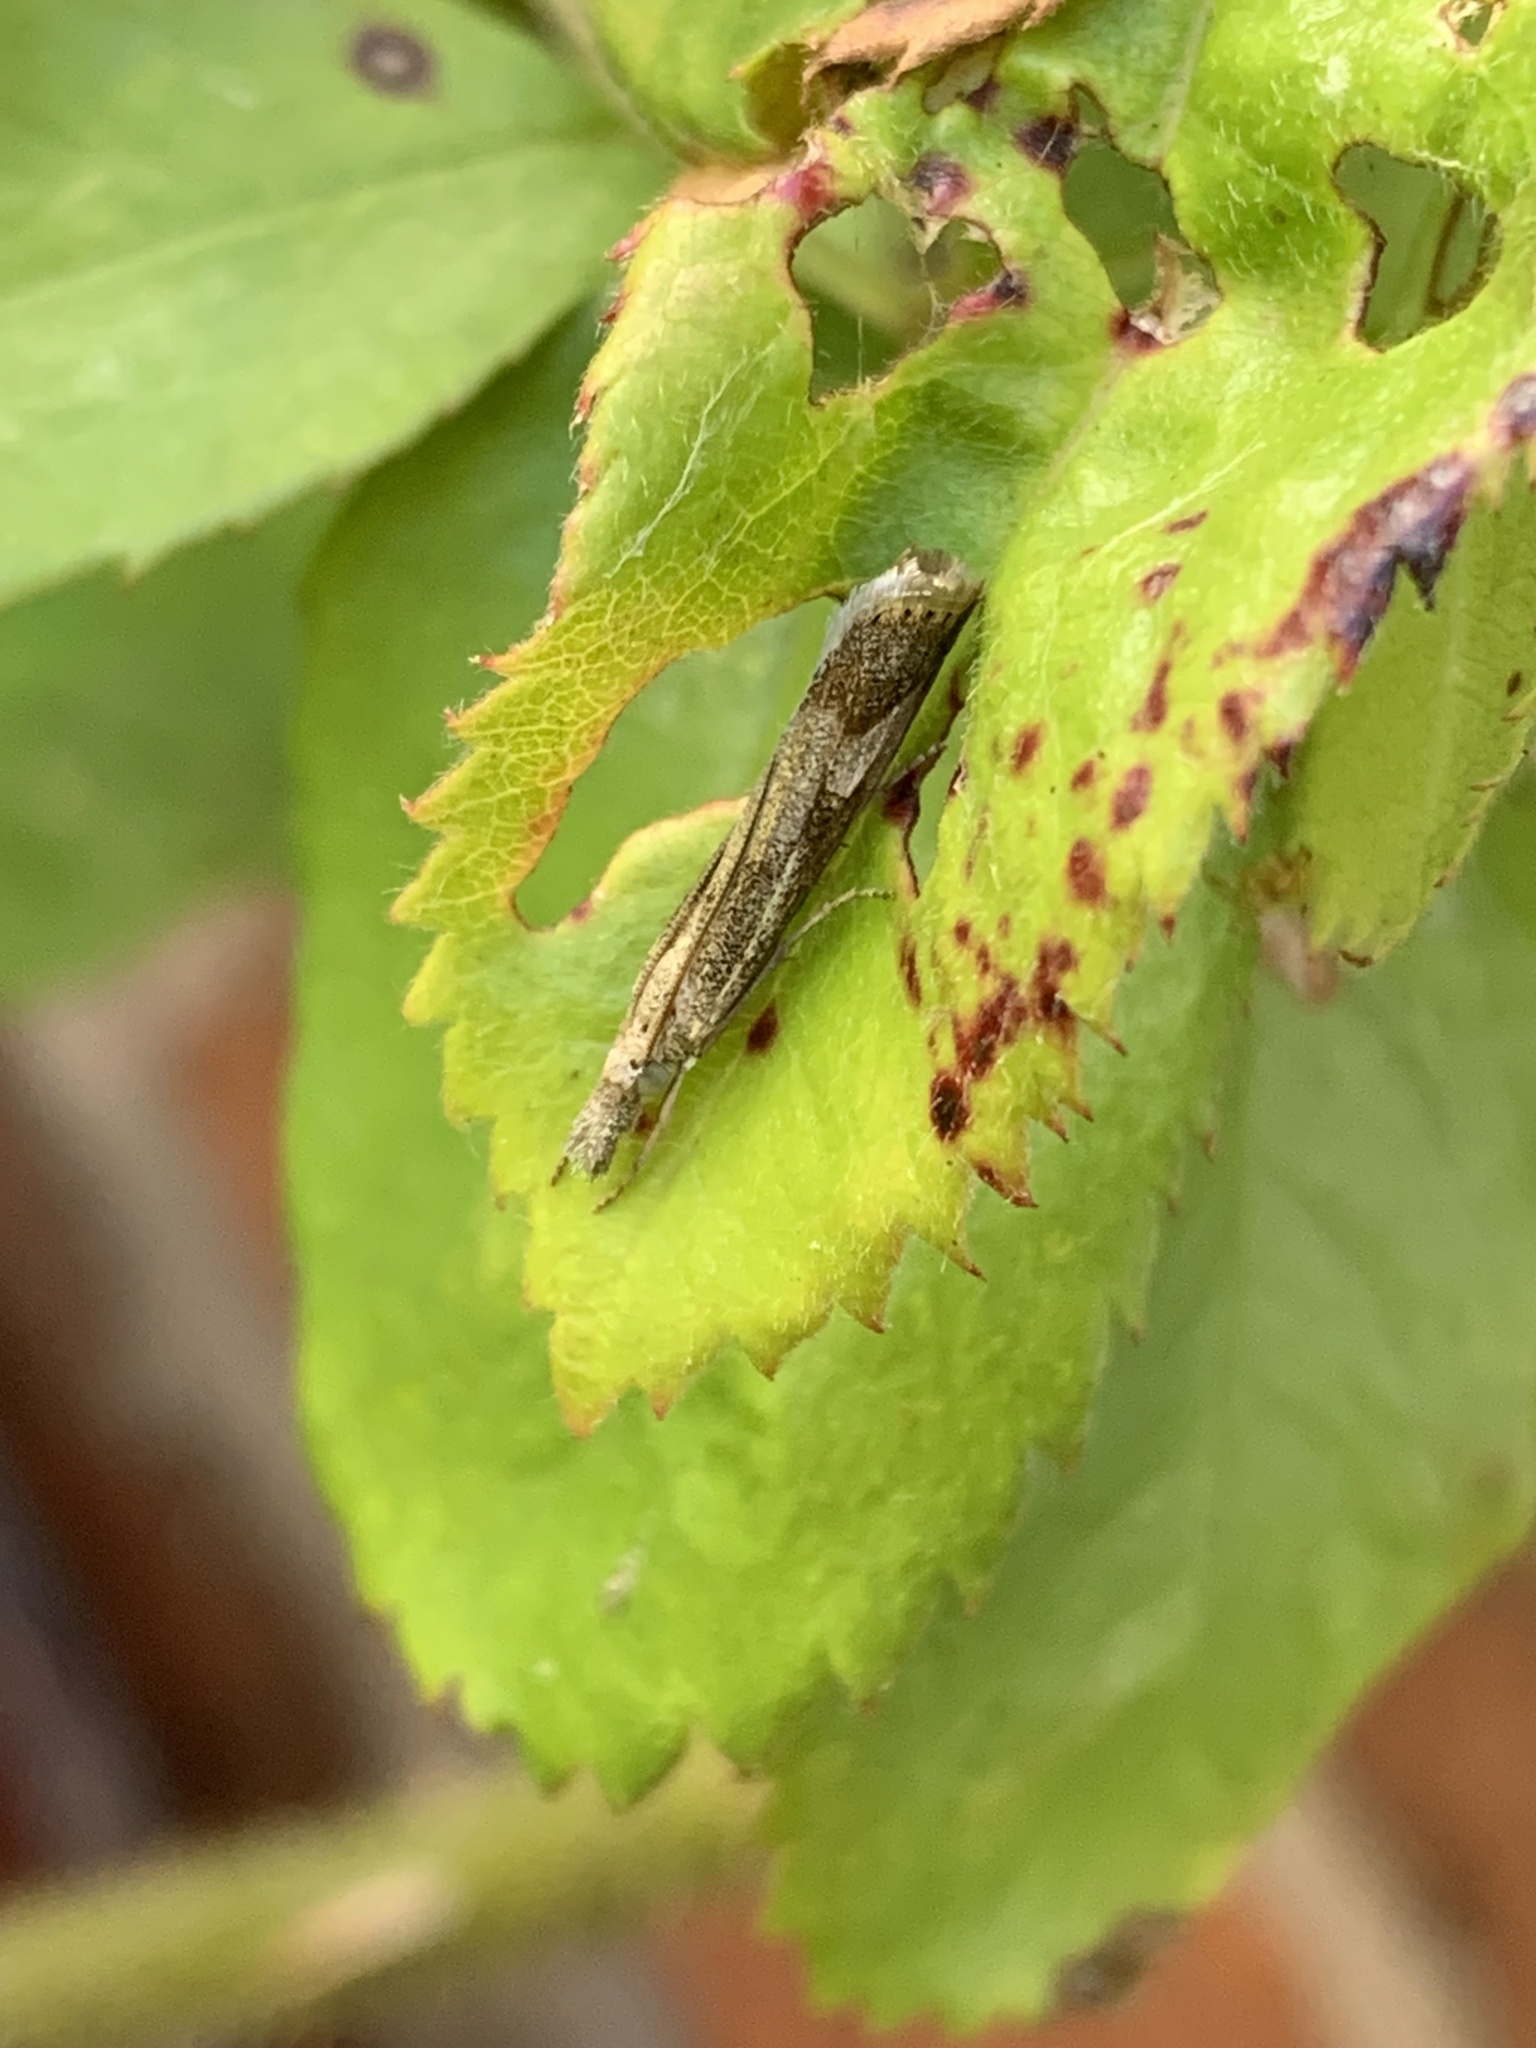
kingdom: Animalia
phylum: Arthropoda
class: Insecta
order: Lepidoptera
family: Crambidae
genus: Agriphila
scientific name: Agriphila geniculea
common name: Elbow-stripe grass-veneer
